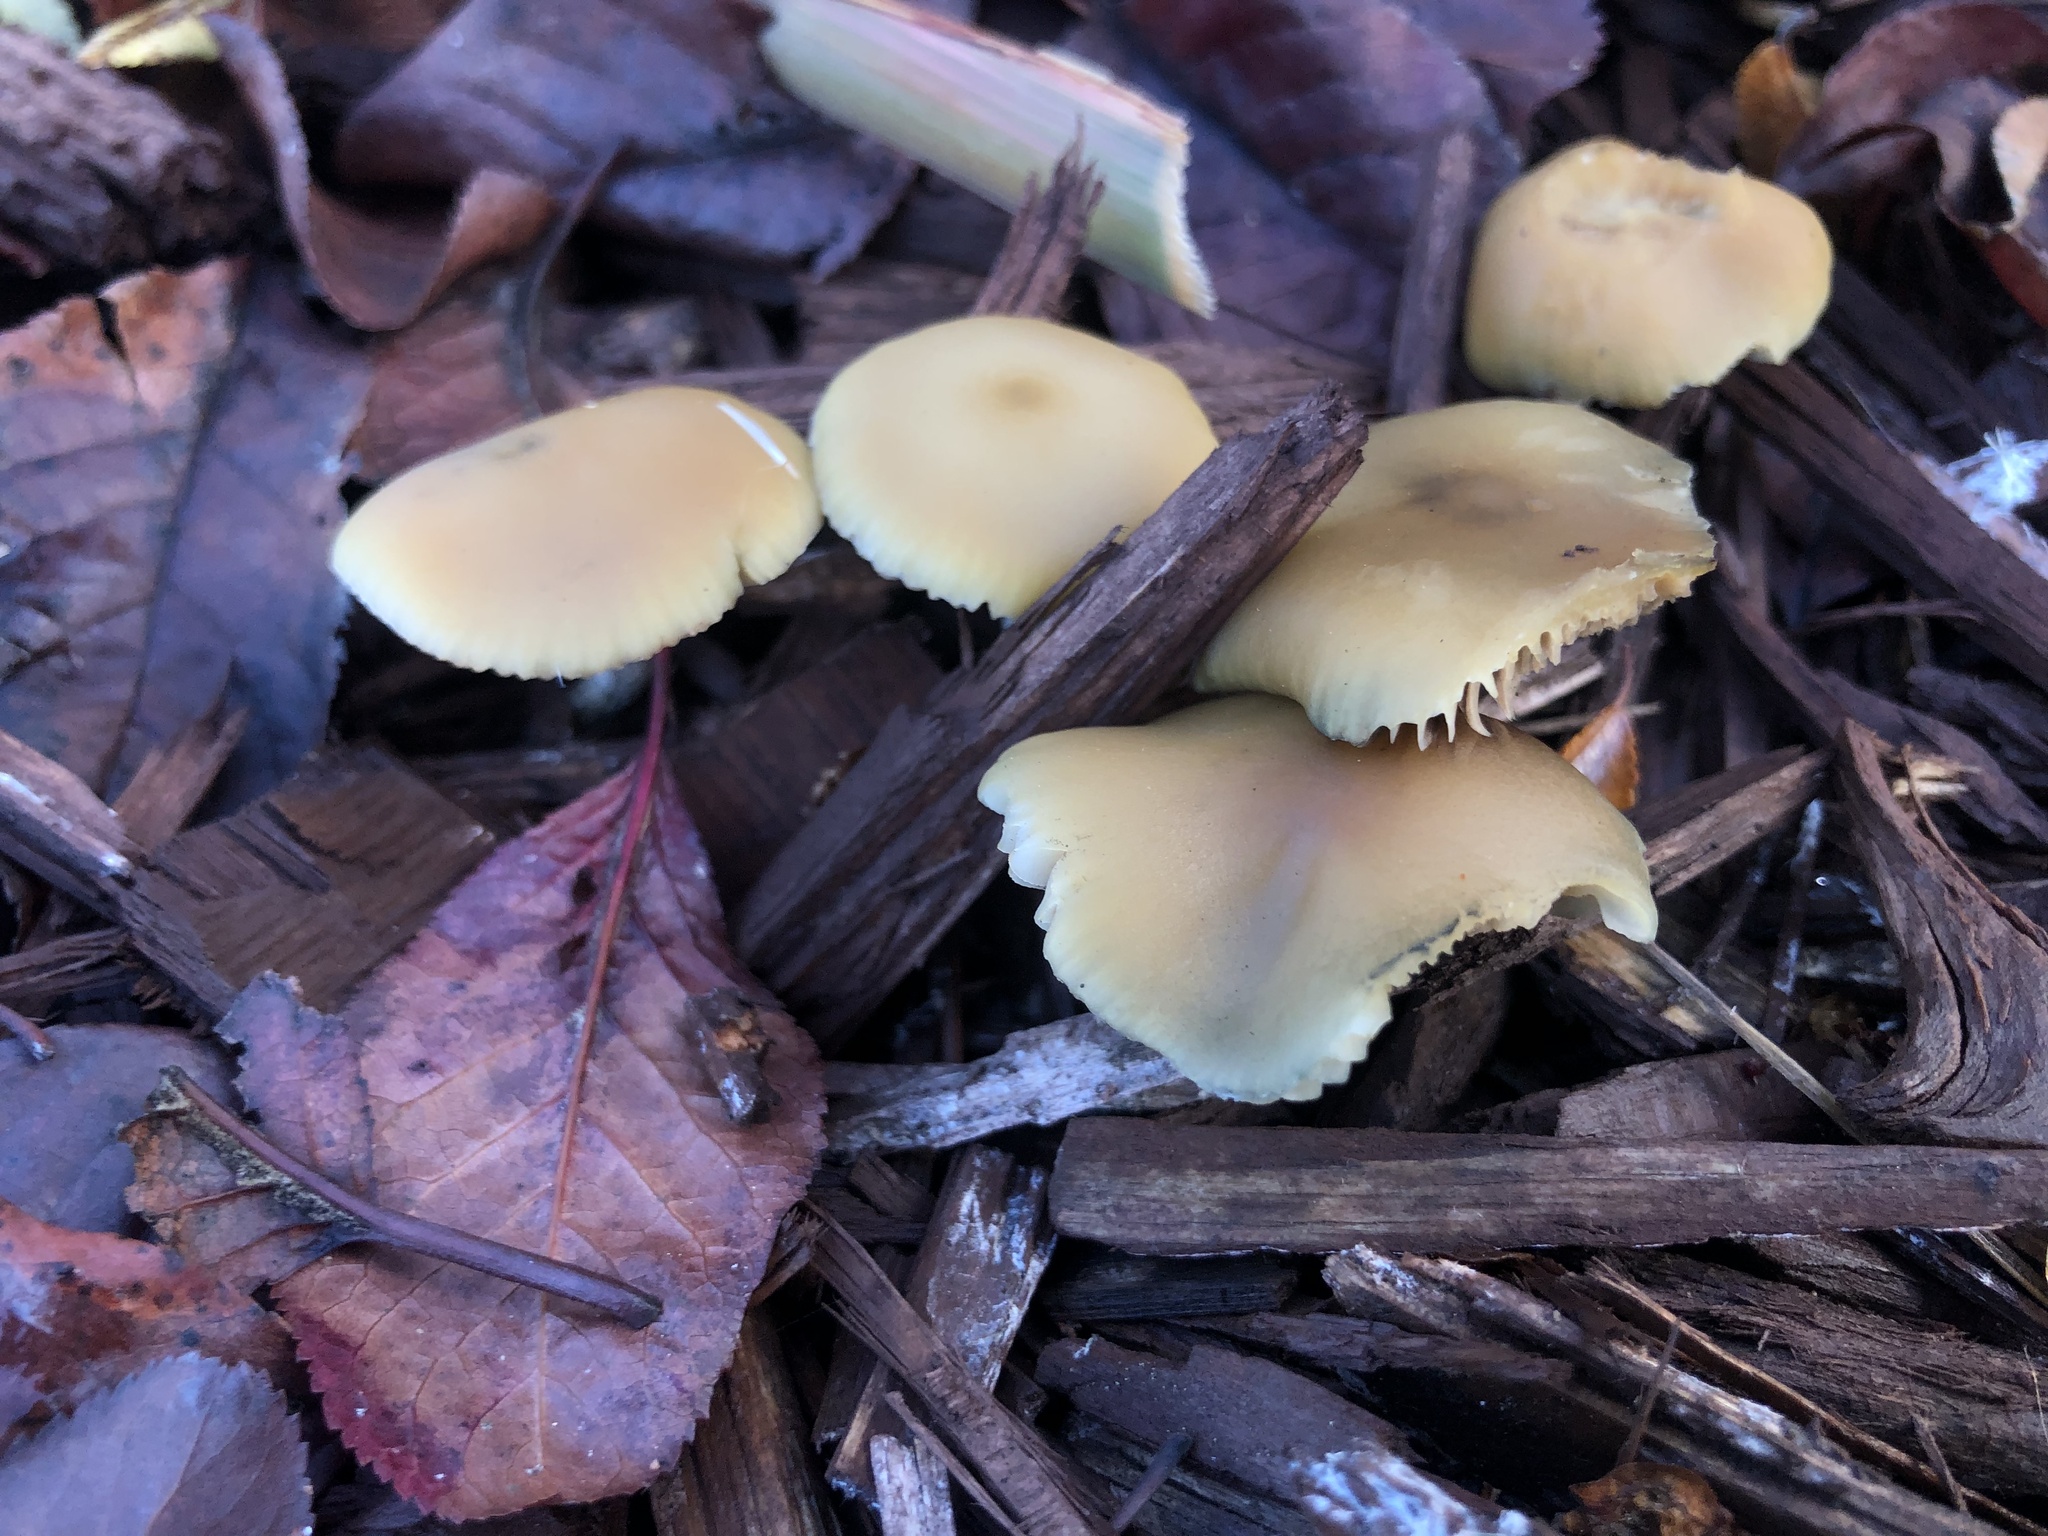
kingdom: Fungi
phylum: Basidiomycota
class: Agaricomycetes
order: Agaricales
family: Hymenogastraceae
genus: Psilocybe
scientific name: Psilocybe allenii
